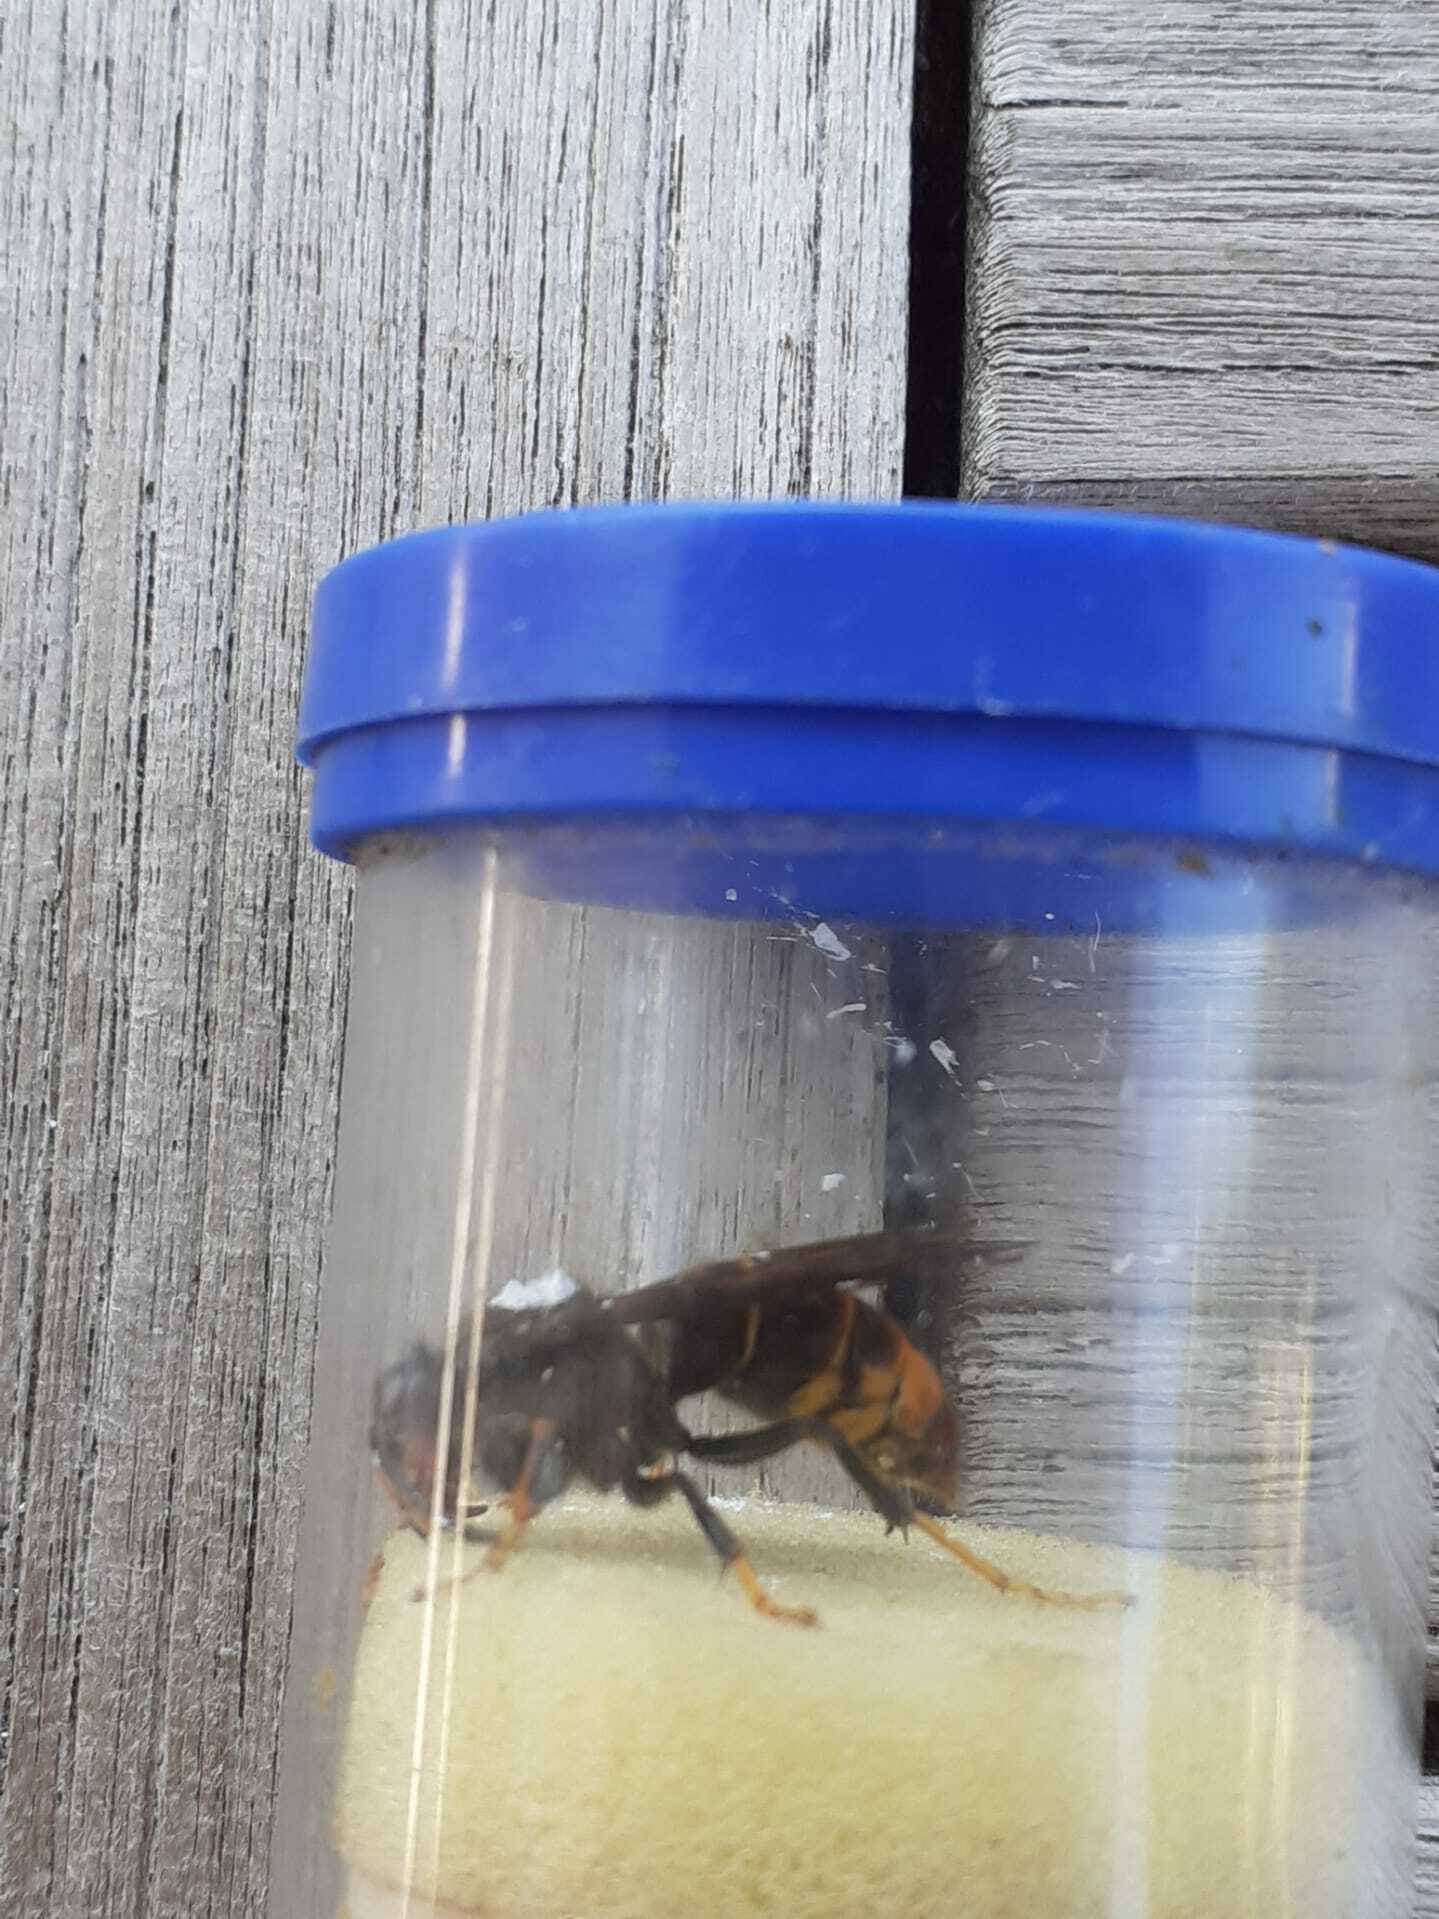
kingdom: Animalia
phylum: Arthropoda
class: Insecta
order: Hymenoptera
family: Vespidae
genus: Vespa
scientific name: Vespa velutina
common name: Asian hornet
